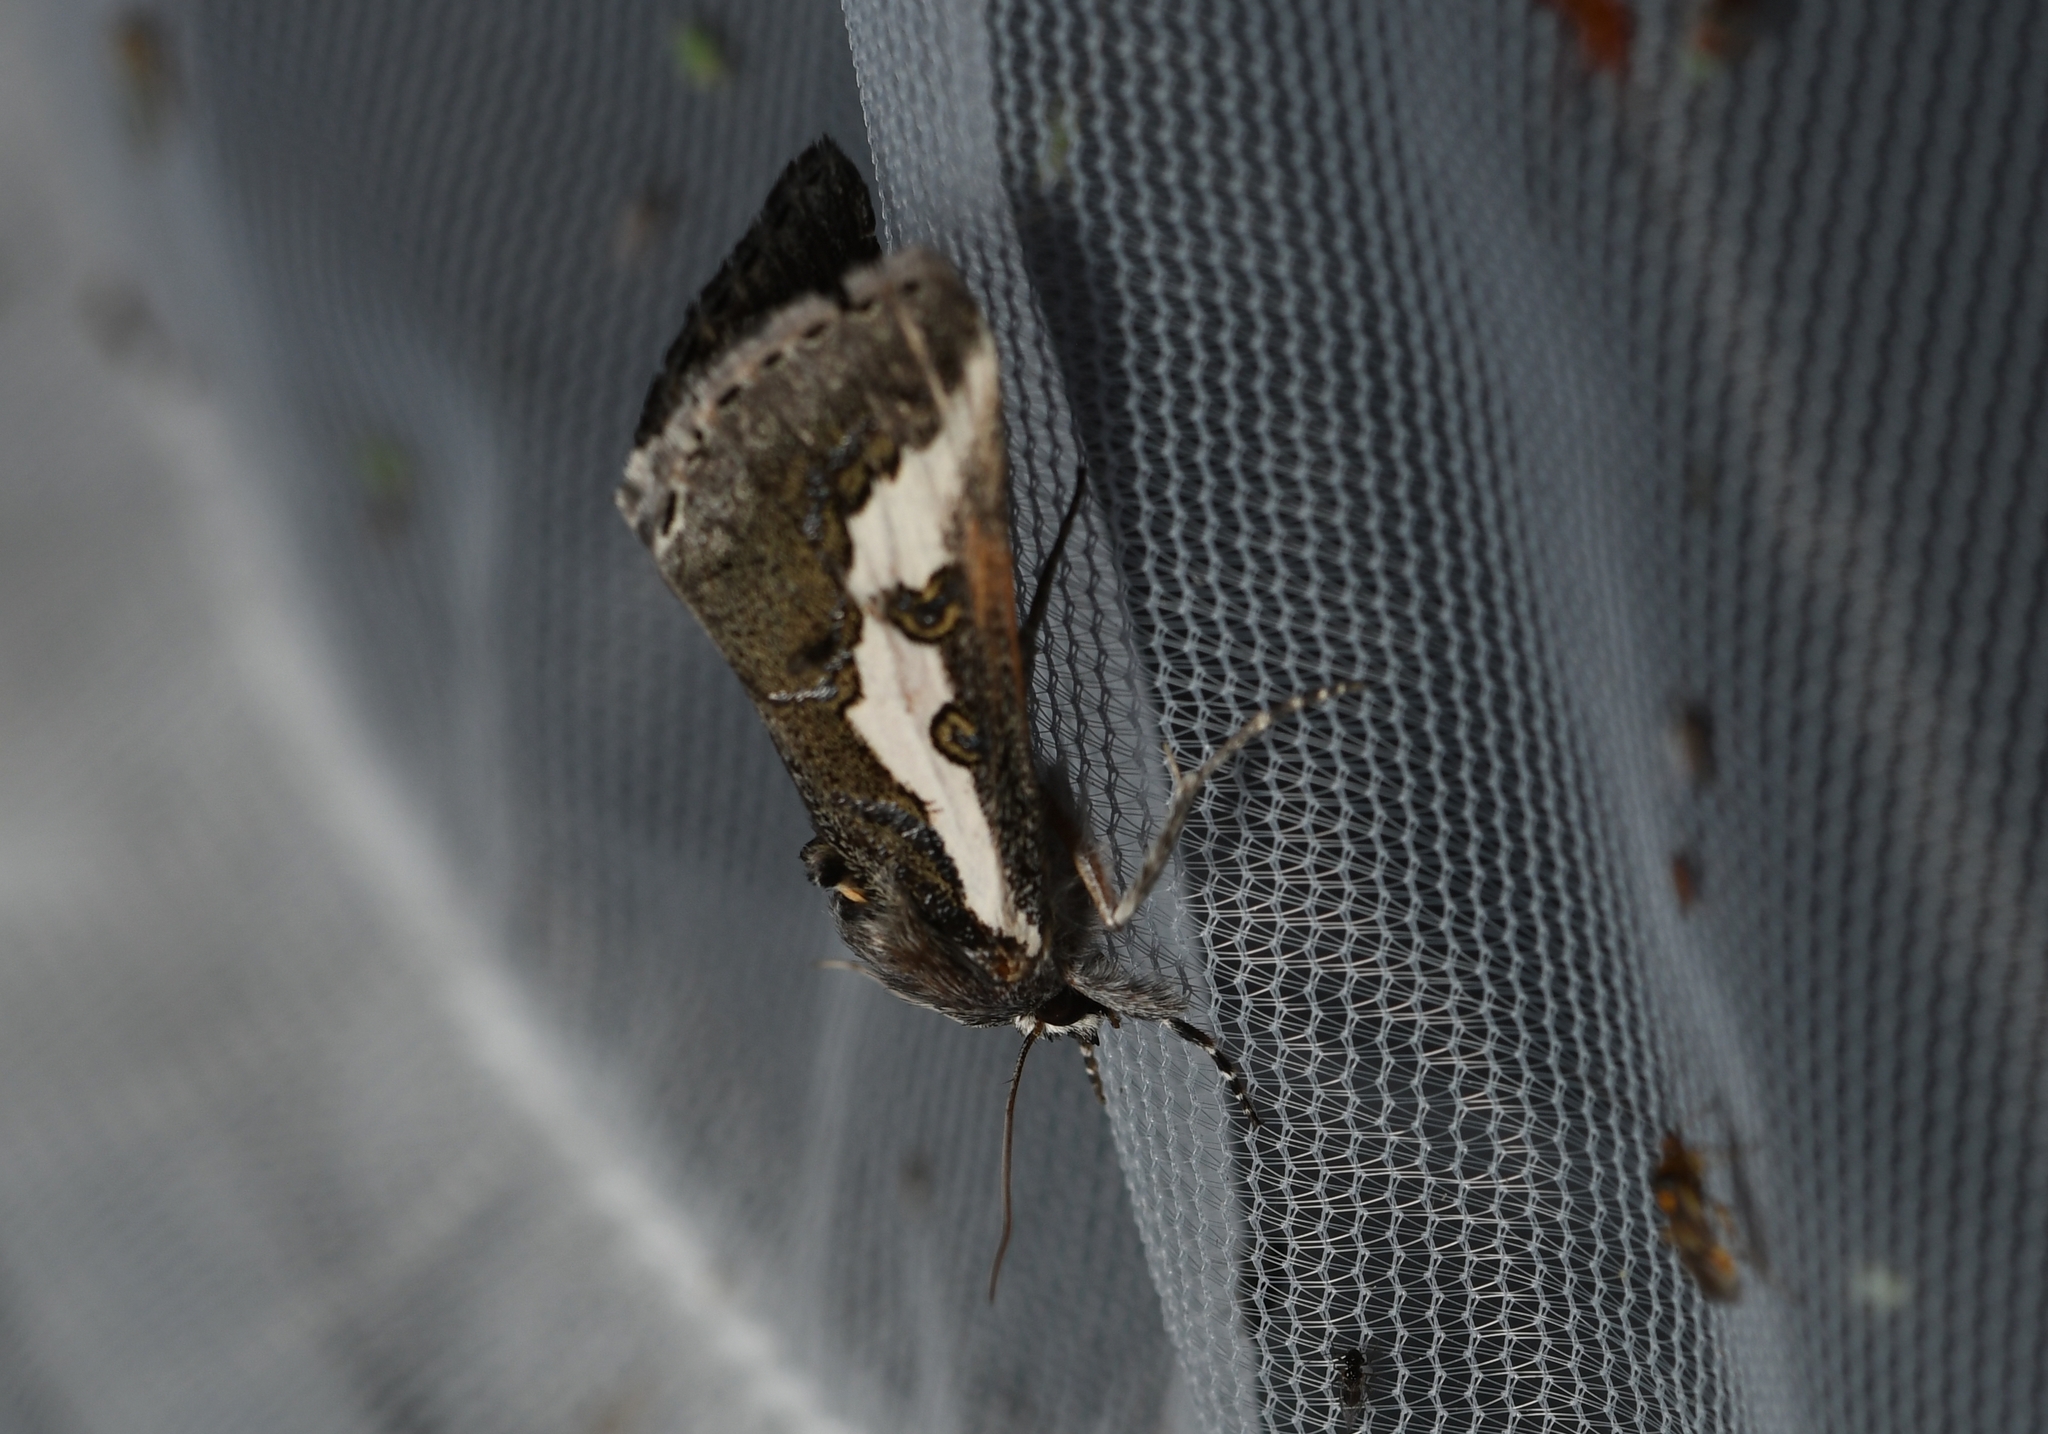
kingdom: Animalia
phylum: Arthropoda
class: Insecta
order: Lepidoptera
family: Noctuidae
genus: Euscirrhopterus
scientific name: Euscirrhopterus gloveri
